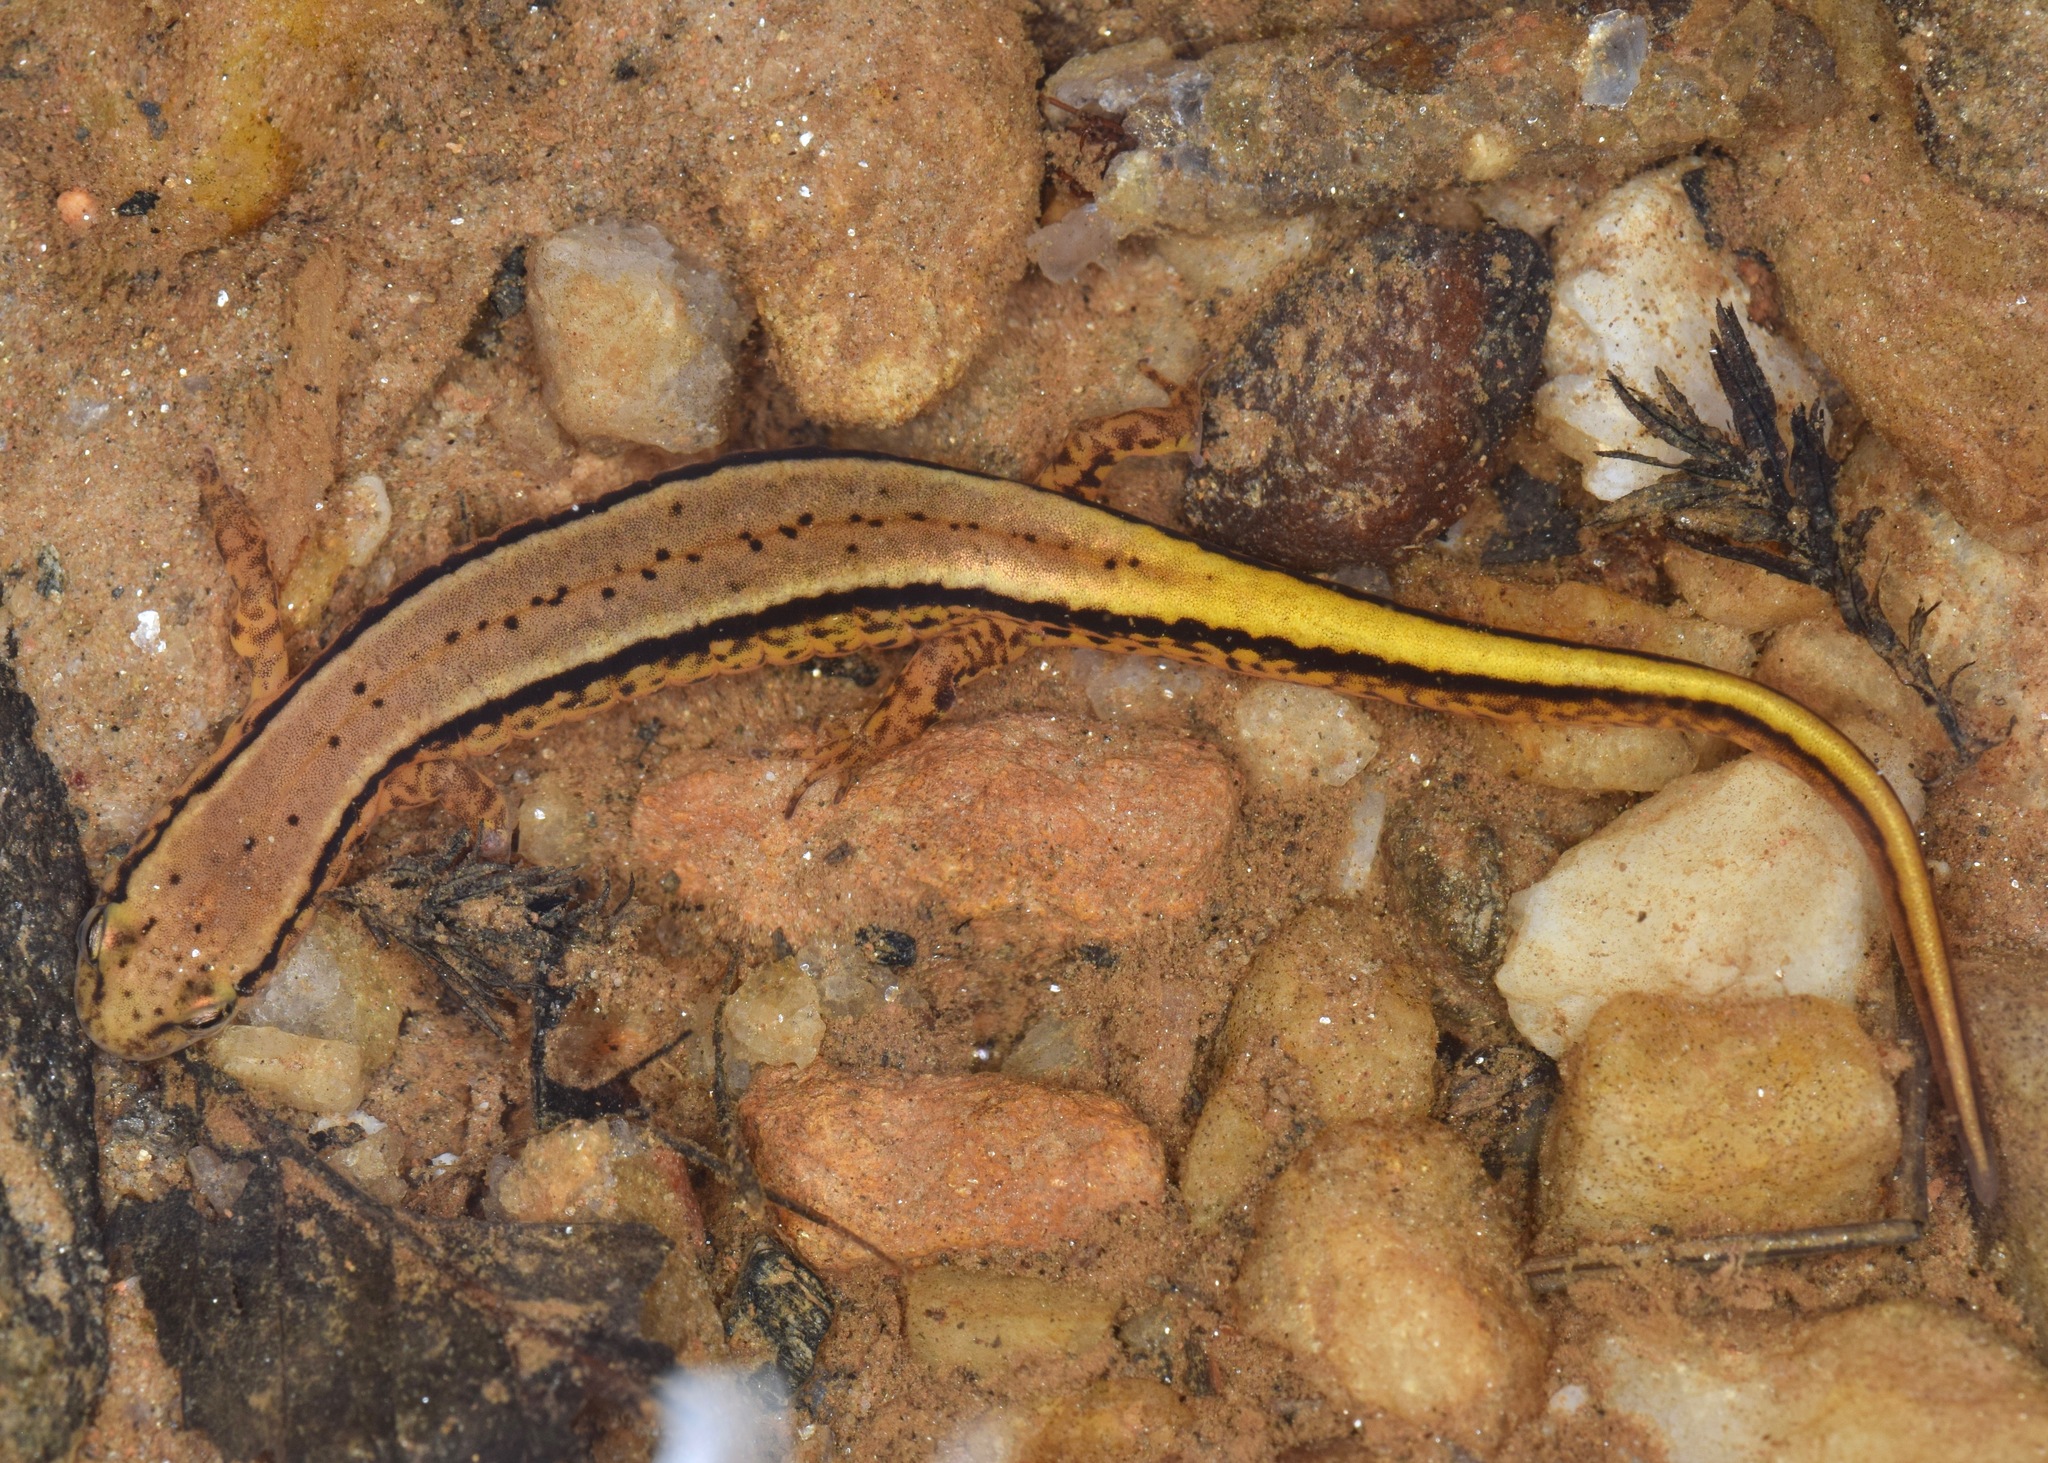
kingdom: Animalia
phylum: Chordata
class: Amphibia
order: Caudata
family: Plethodontidae
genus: Eurycea
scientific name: Eurycea cirrigera
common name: Southern two-lined salamander
